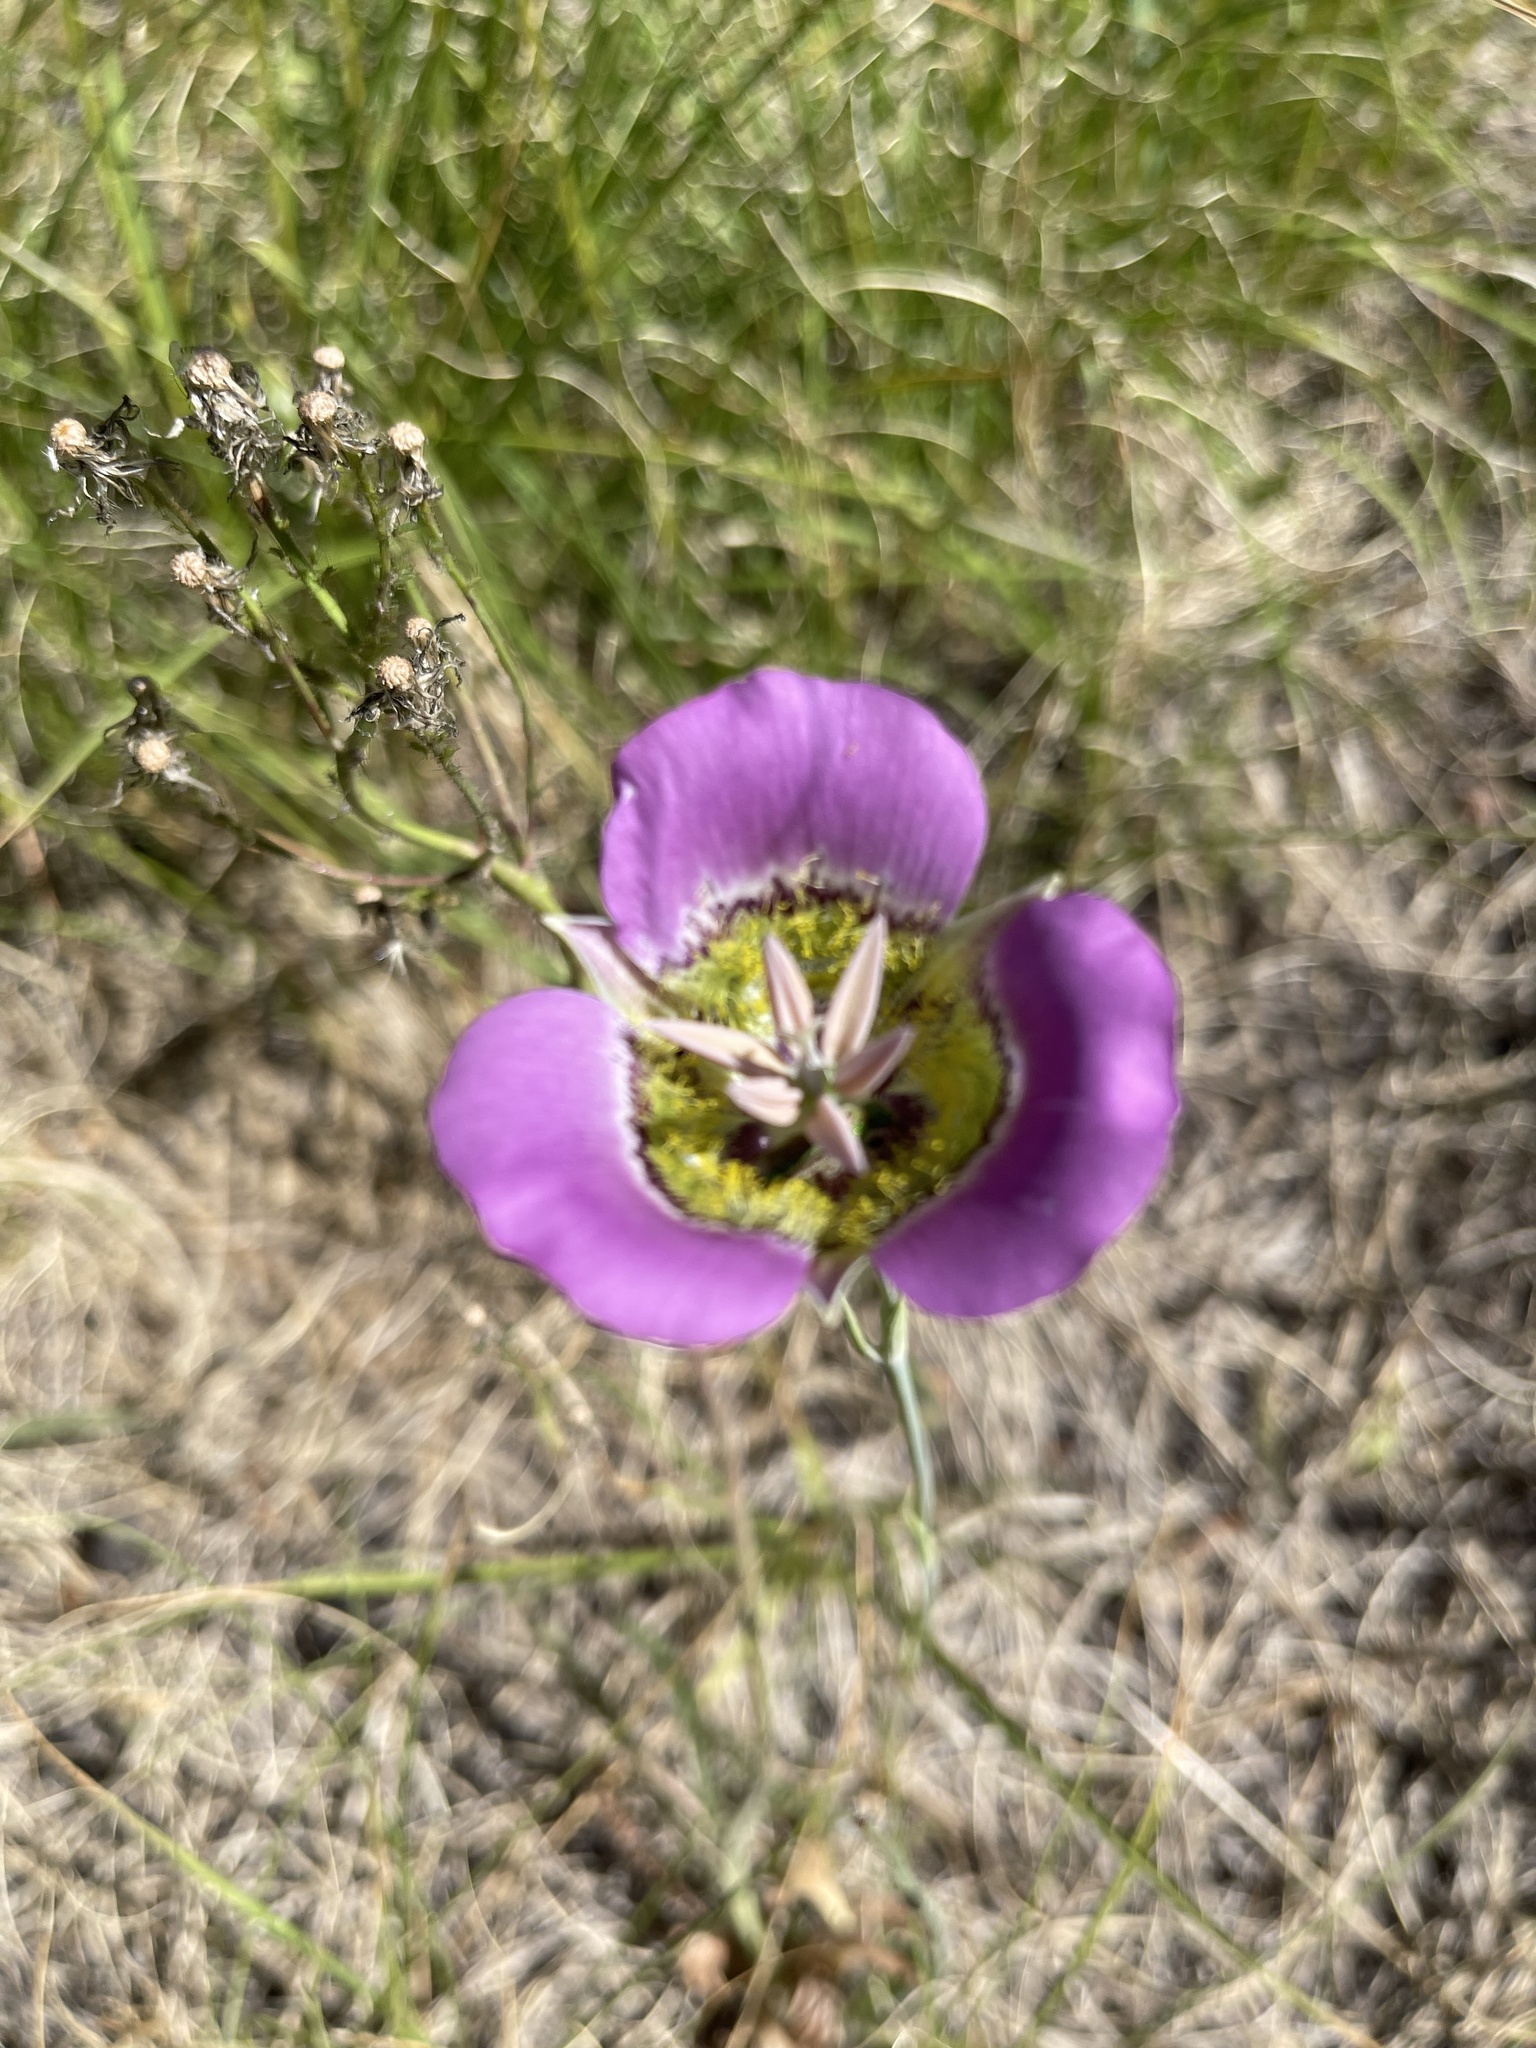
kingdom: Plantae
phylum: Tracheophyta
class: Liliopsida
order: Liliales
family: Liliaceae
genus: Calochortus
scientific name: Calochortus gunnisonii
